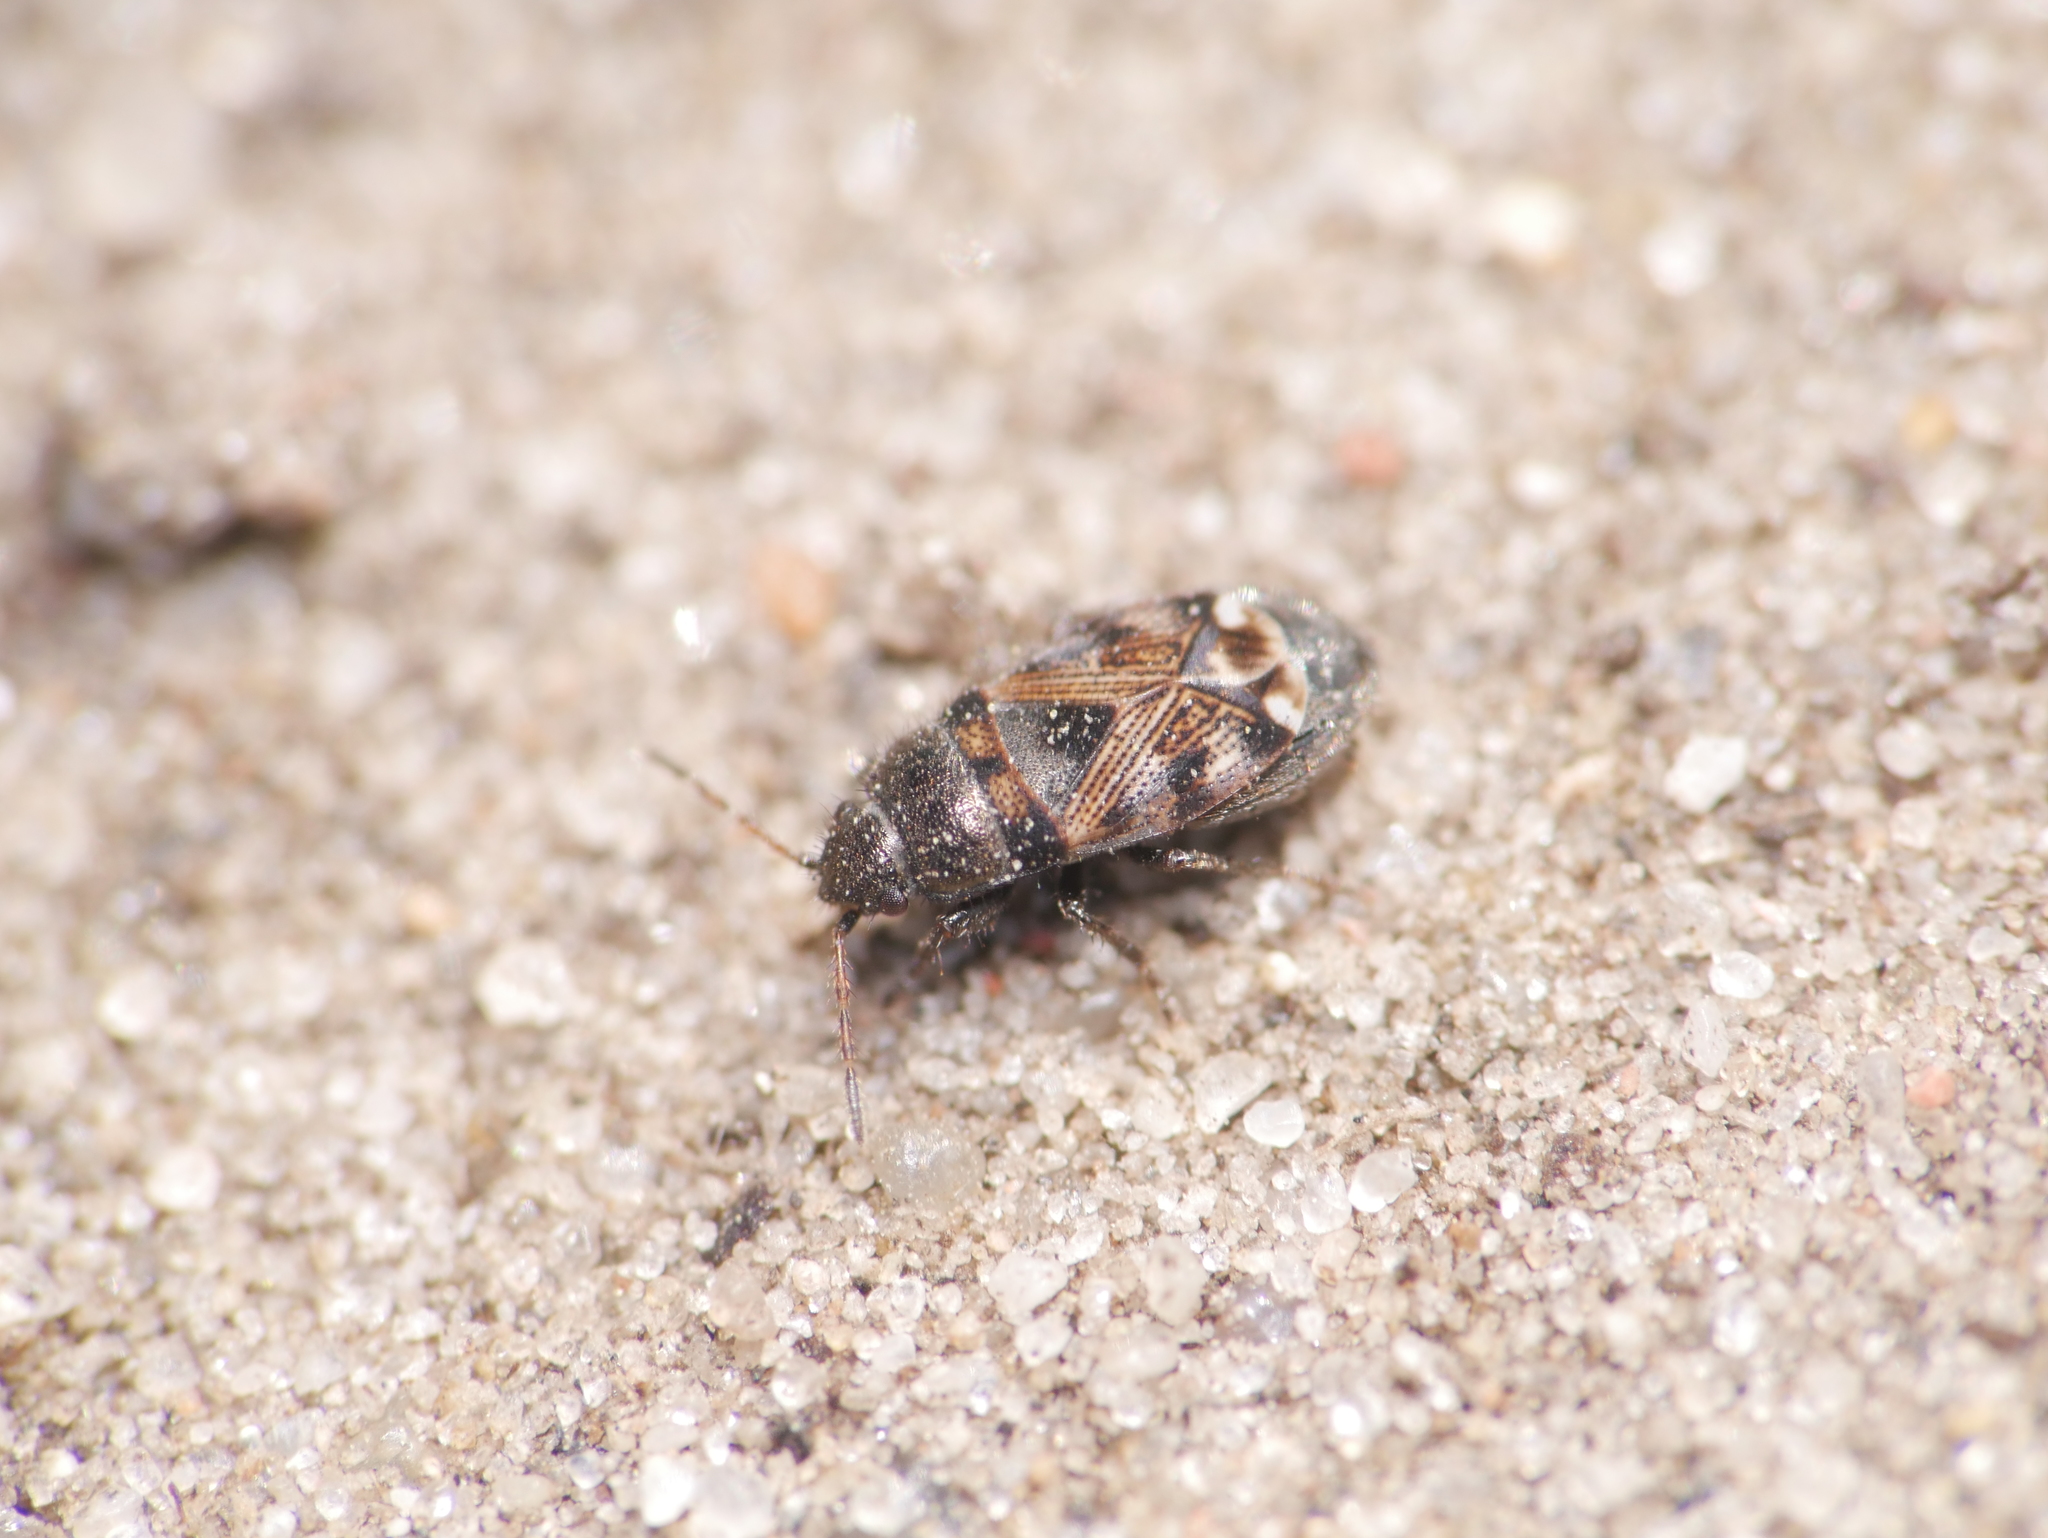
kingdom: Animalia
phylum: Arthropoda
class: Insecta
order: Hemiptera
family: Rhyparochromidae
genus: Pionosomus
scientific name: Pionosomus varius
